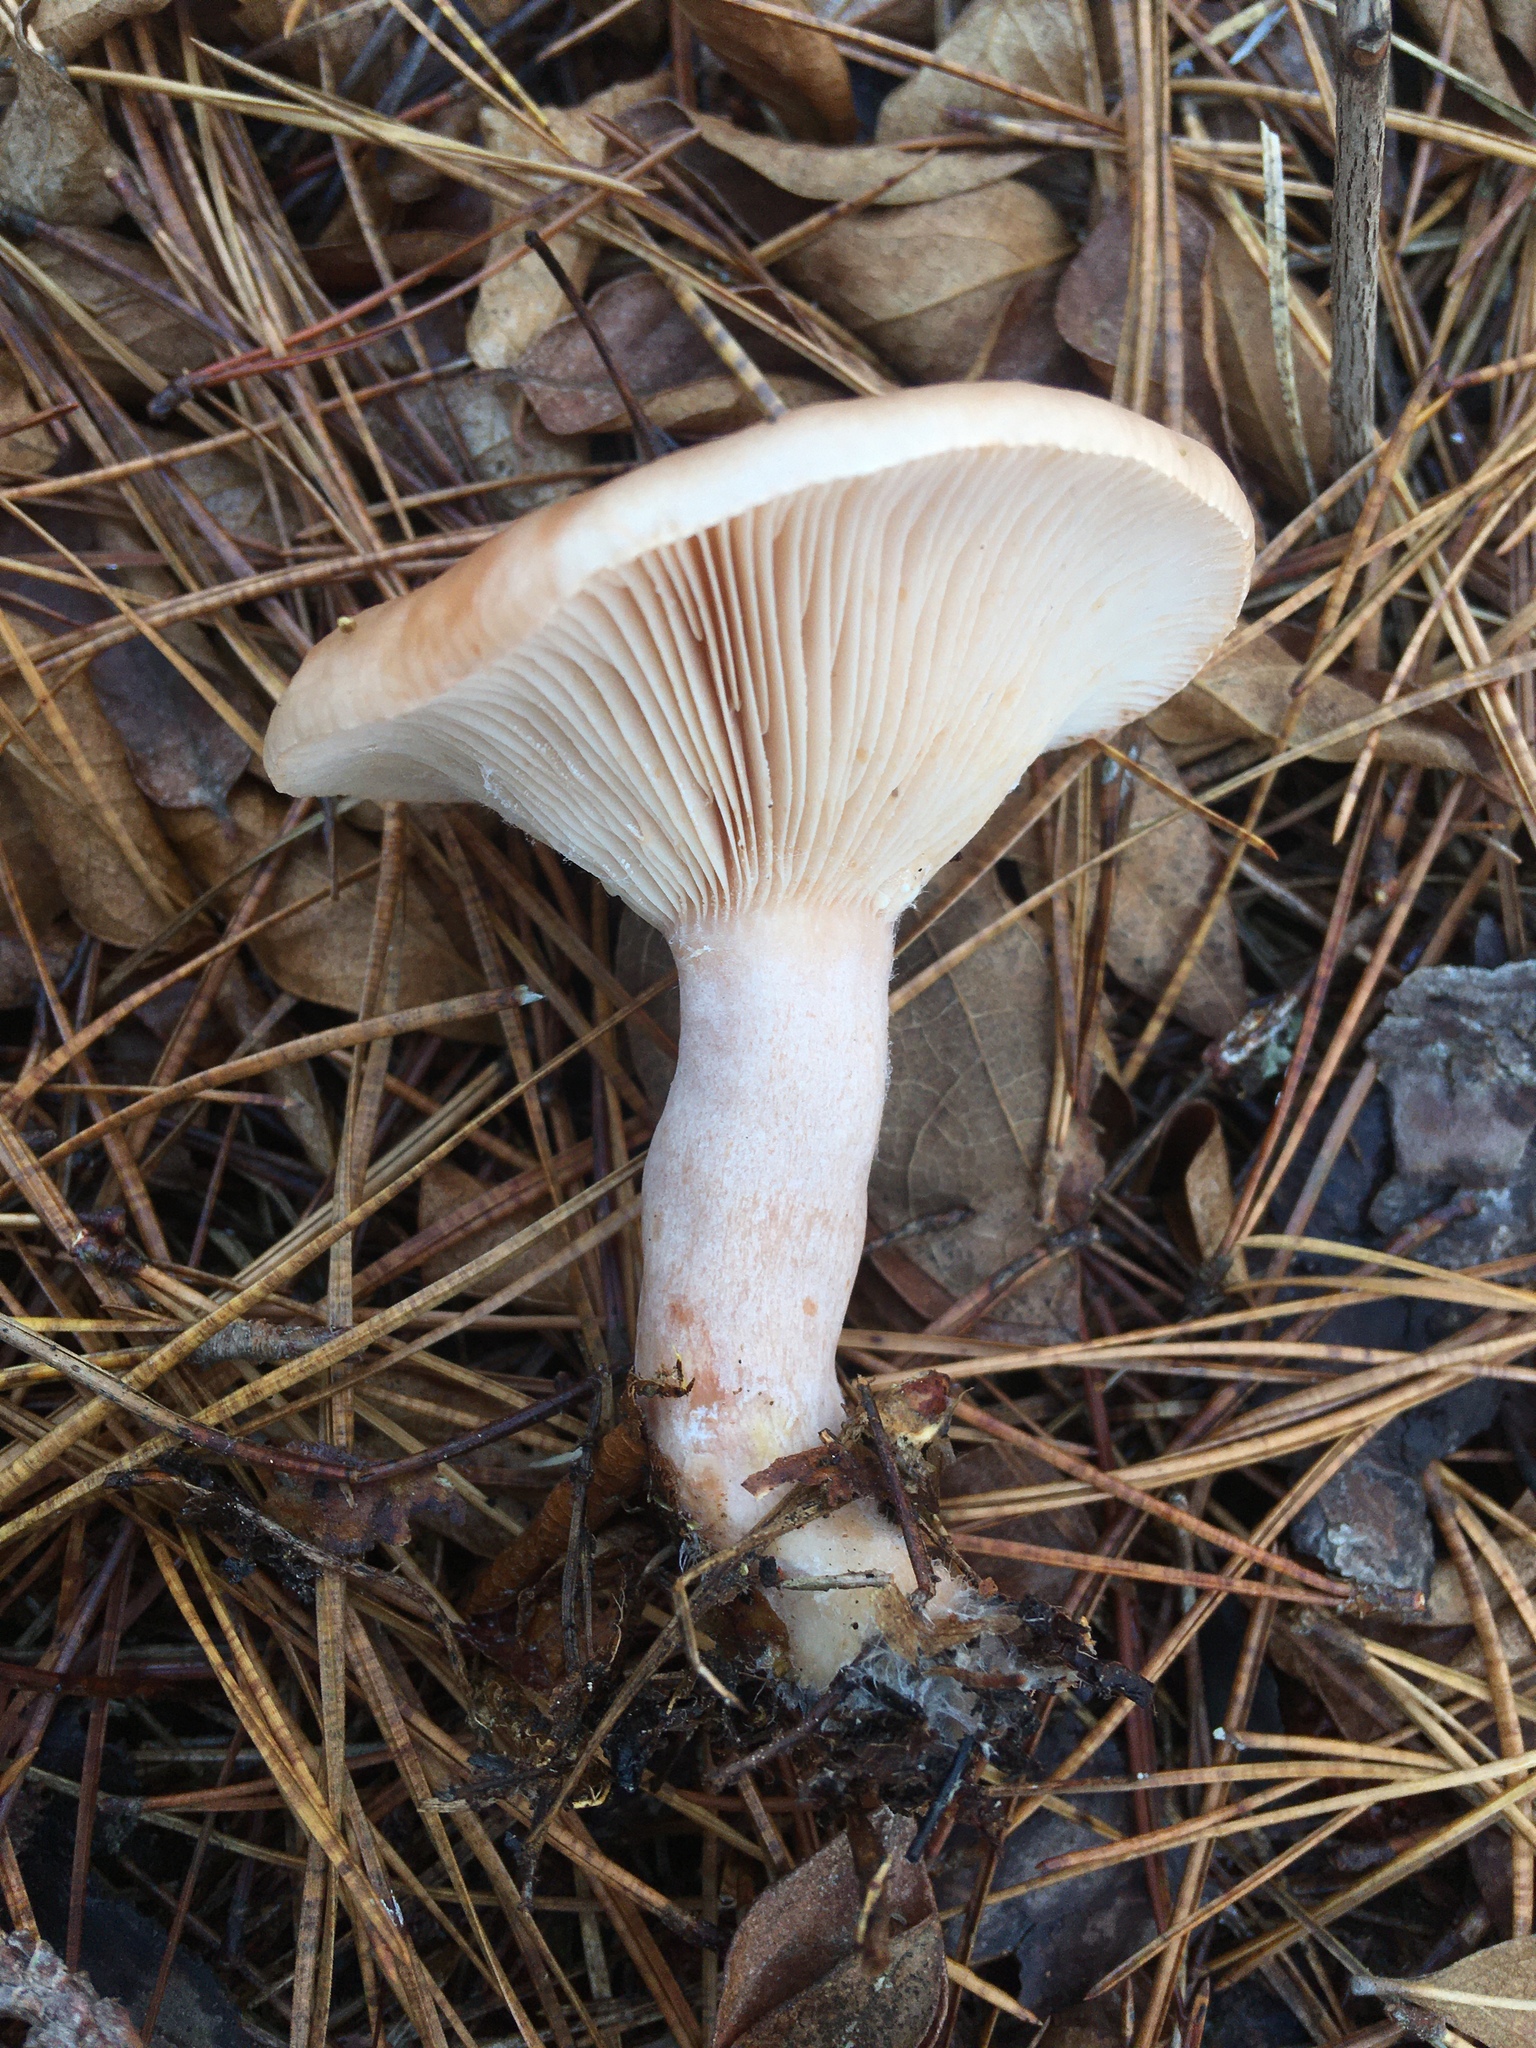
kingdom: Fungi
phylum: Basidiomycota
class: Agaricomycetes
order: Russulales
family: Russulaceae
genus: Lactarius
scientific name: Lactarius imperceptus
